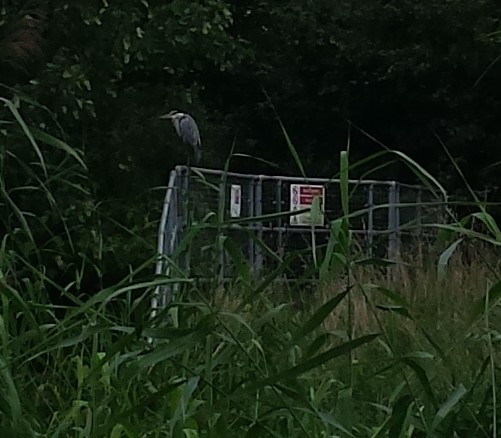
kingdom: Animalia
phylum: Chordata
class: Aves
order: Pelecaniformes
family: Ardeidae
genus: Ardea
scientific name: Ardea cinerea
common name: Grey heron
